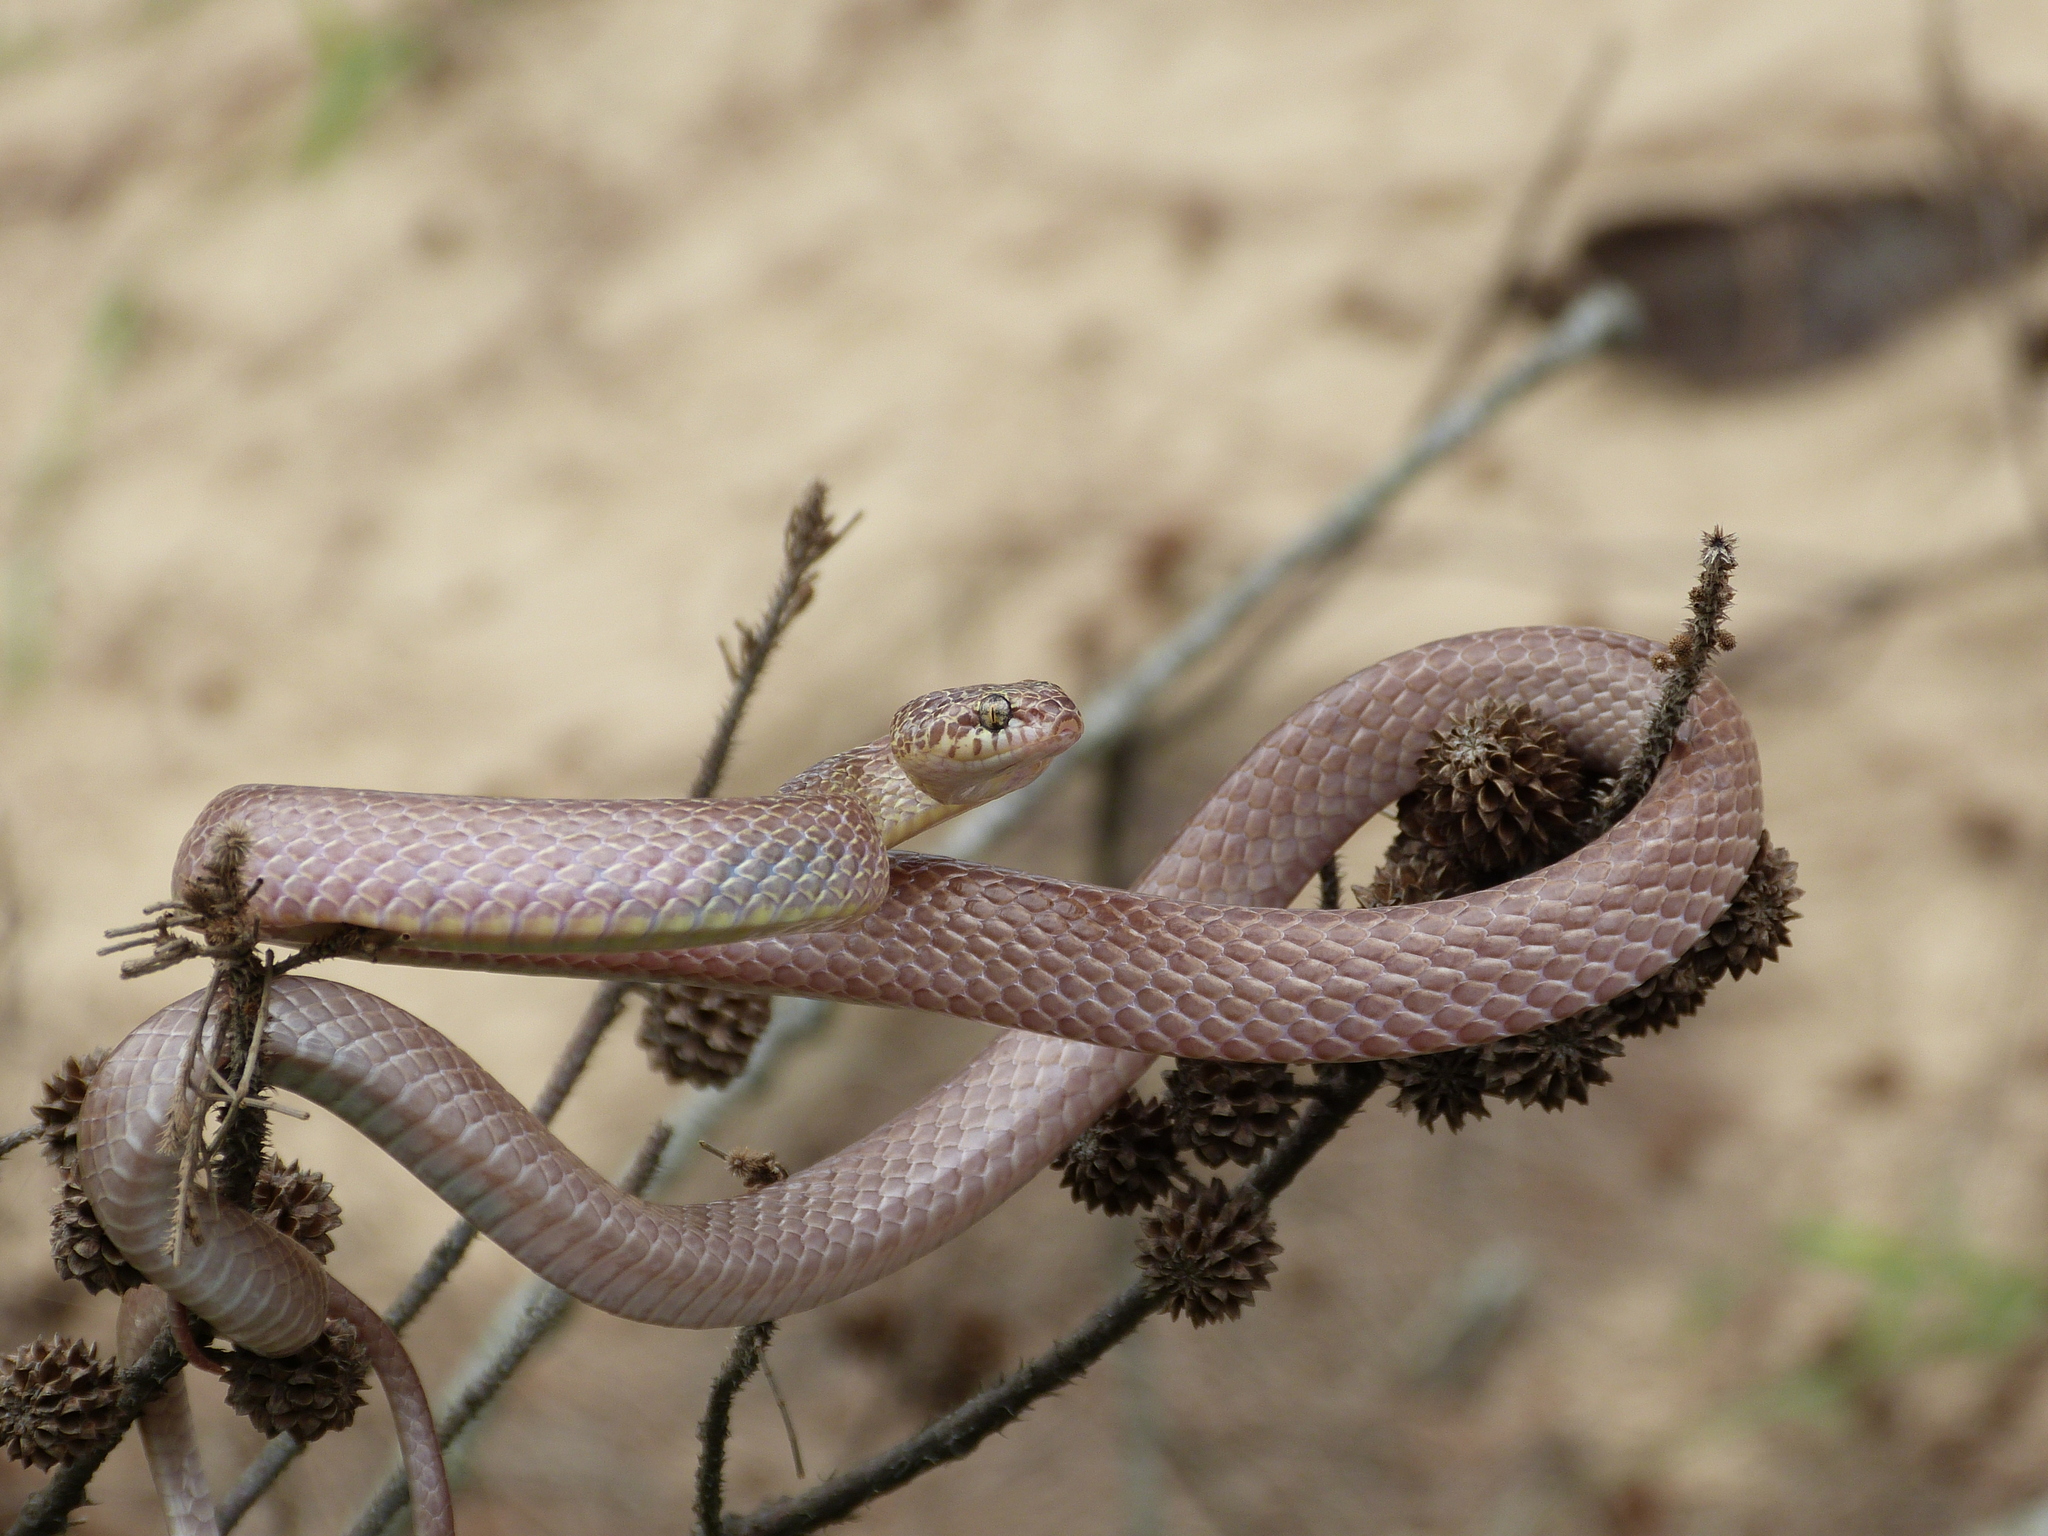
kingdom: Animalia
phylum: Chordata
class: Squamata
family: Colubridae
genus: Dipsadoboa
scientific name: Dipsadoboa aulica
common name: Cross-barred snake
